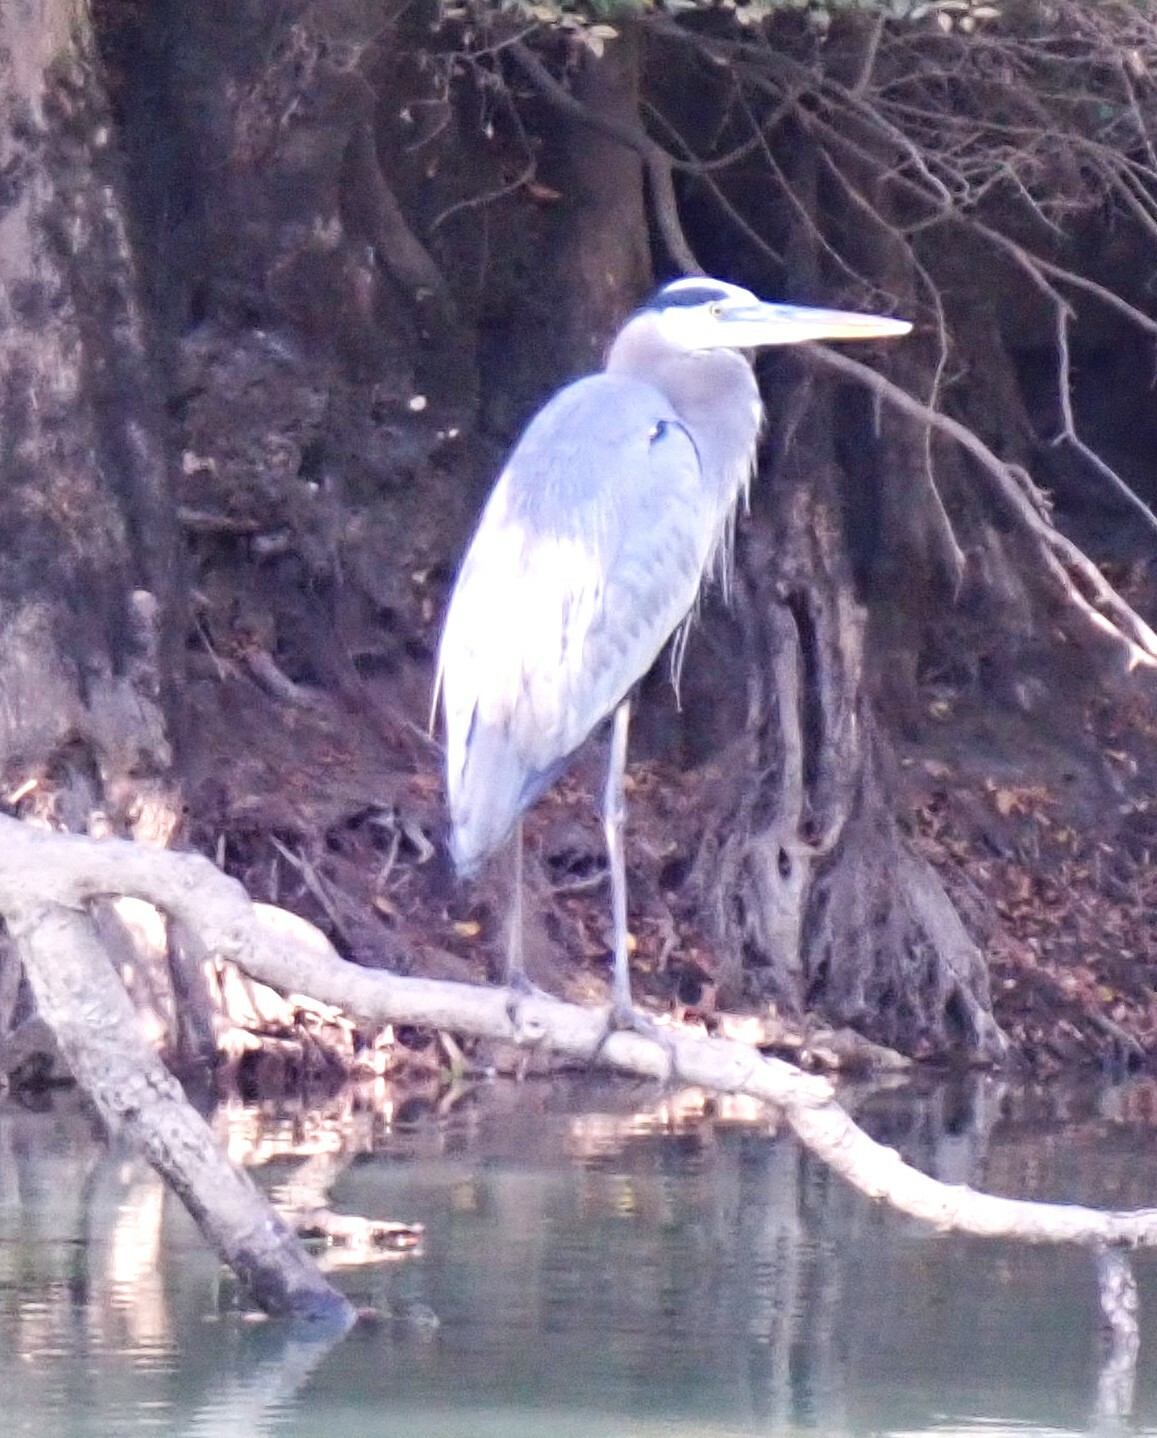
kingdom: Animalia
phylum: Chordata
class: Aves
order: Pelecaniformes
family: Ardeidae
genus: Ardea
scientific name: Ardea herodias
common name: Great blue heron
